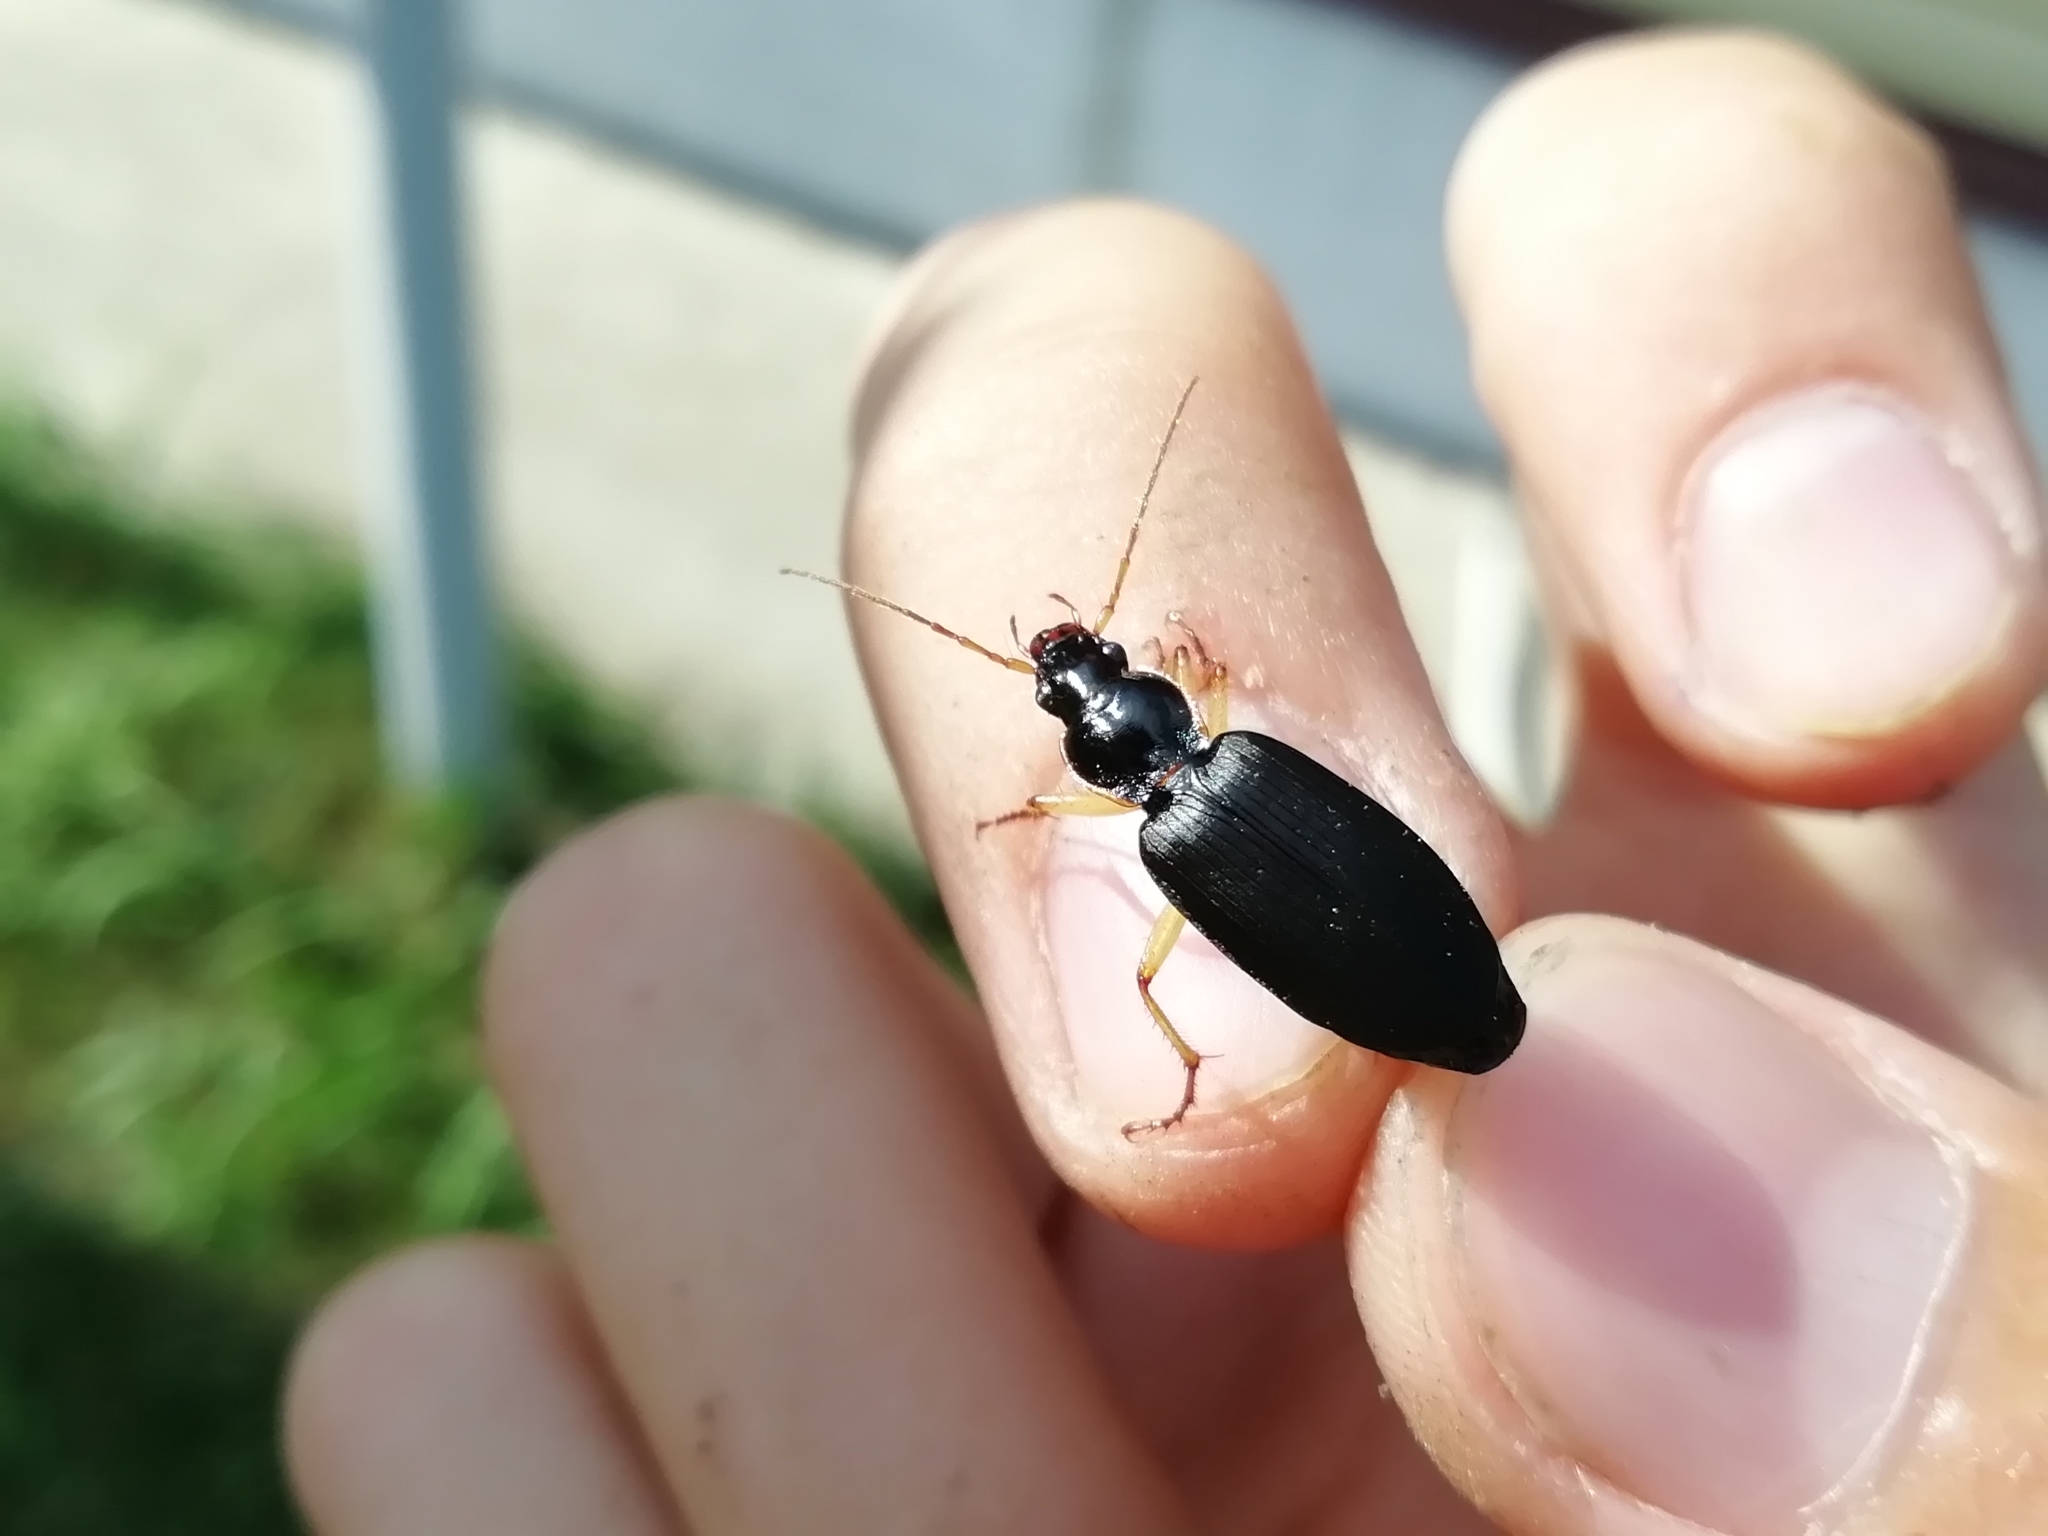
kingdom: Animalia
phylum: Arthropoda
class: Insecta
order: Coleoptera
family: Carabidae
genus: Dolichus
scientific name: Dolichus halensis
